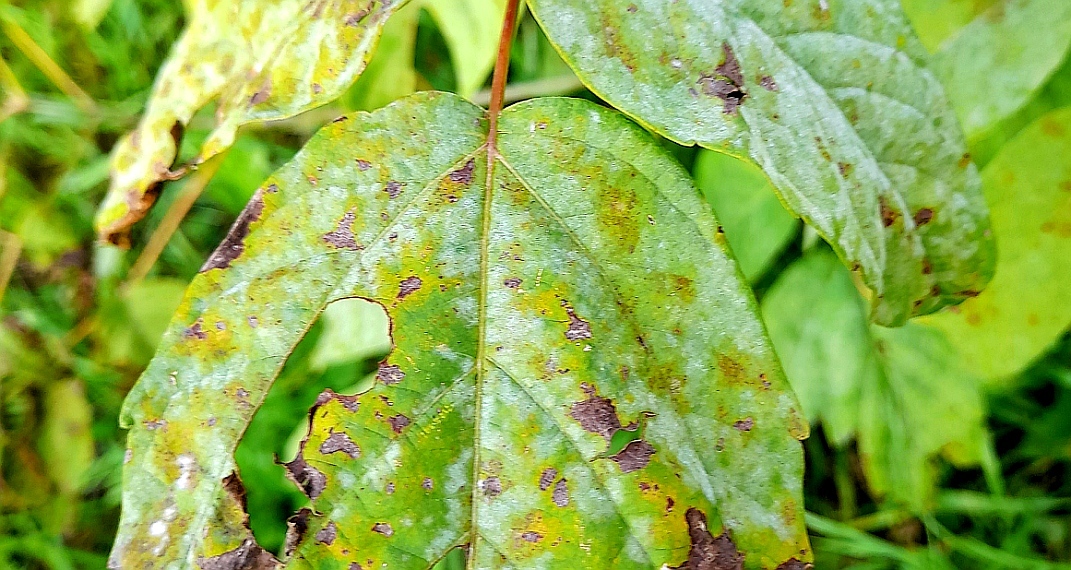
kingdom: Fungi
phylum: Ascomycota
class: Leotiomycetes
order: Helotiales
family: Erysiphaceae
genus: Sawadaea
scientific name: Sawadaea bicornis
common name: Maple mildew
